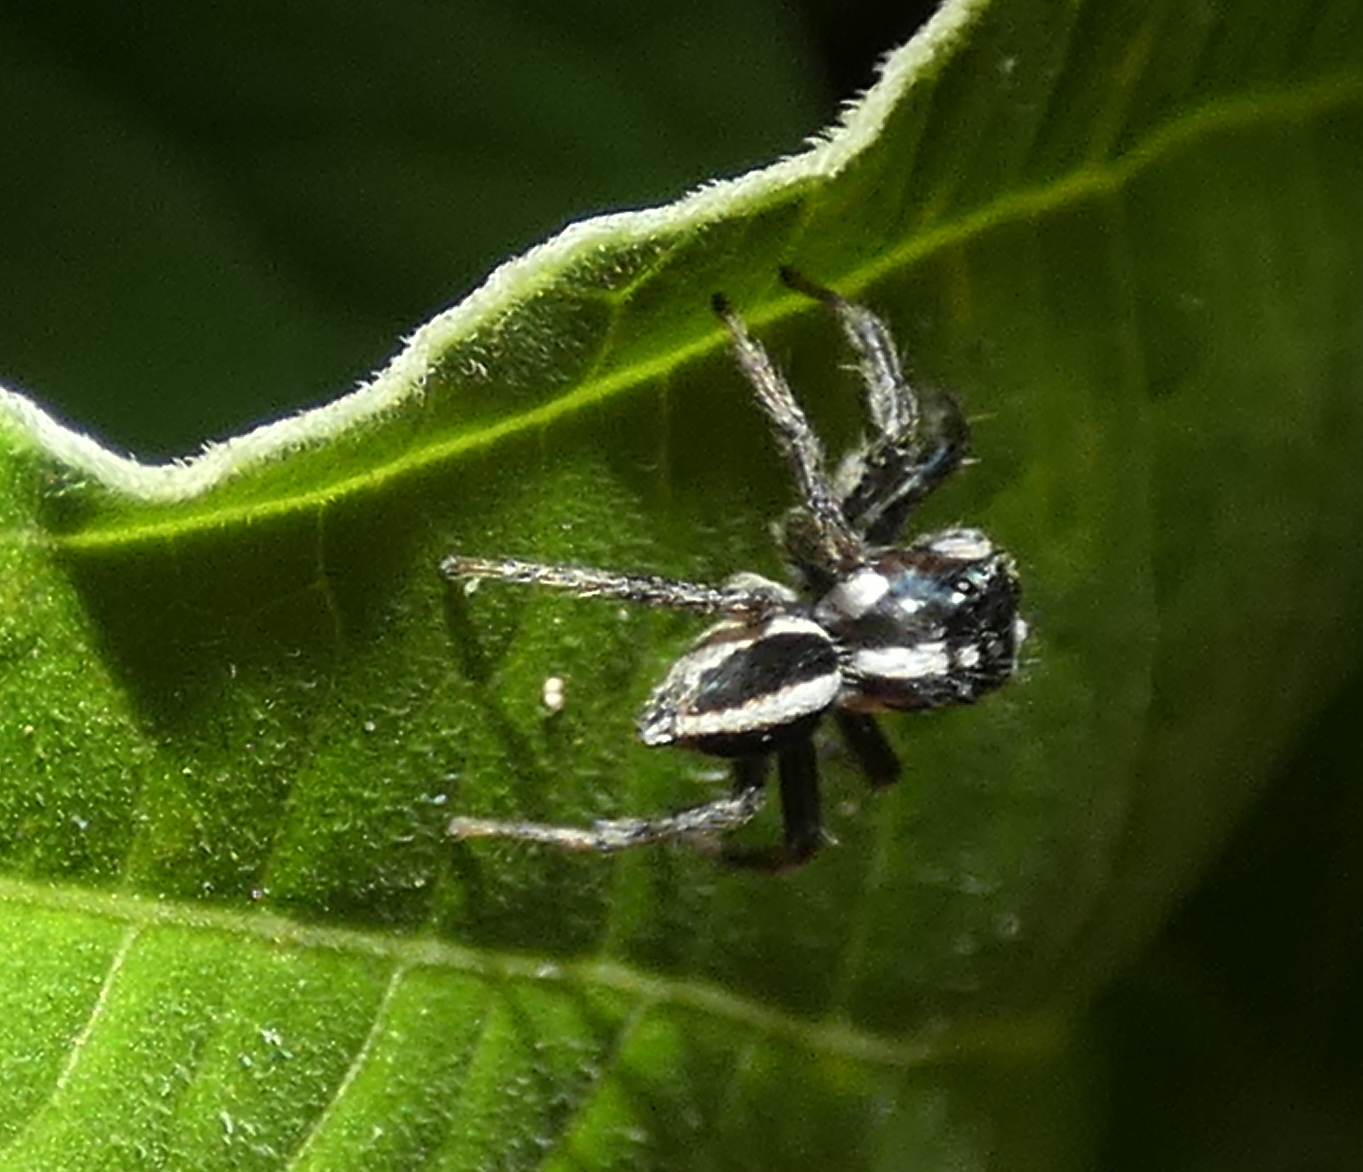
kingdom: Animalia
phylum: Arthropoda
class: Arachnida
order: Araneae
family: Salticidae
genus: Leptofreya
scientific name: Leptofreya ambigua
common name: Jumping spider
